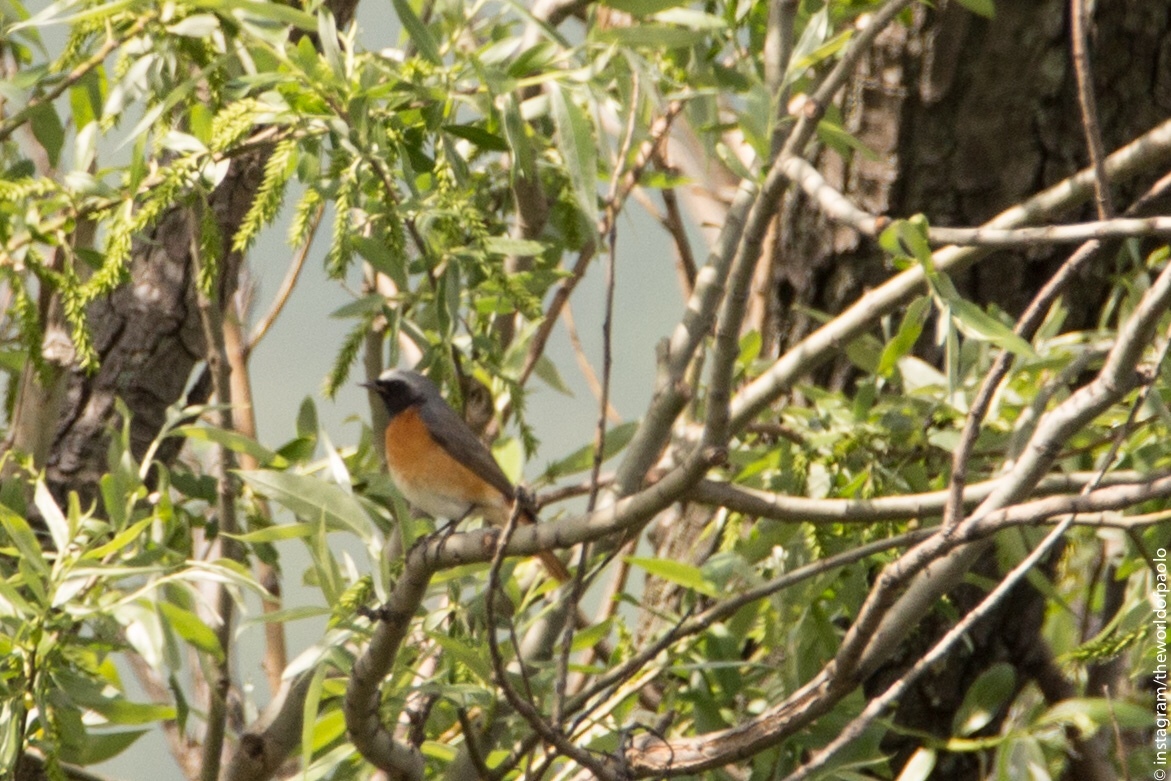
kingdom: Animalia
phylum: Chordata
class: Aves
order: Passeriformes
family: Muscicapidae
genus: Phoenicurus
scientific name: Phoenicurus phoenicurus
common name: Common redstart
